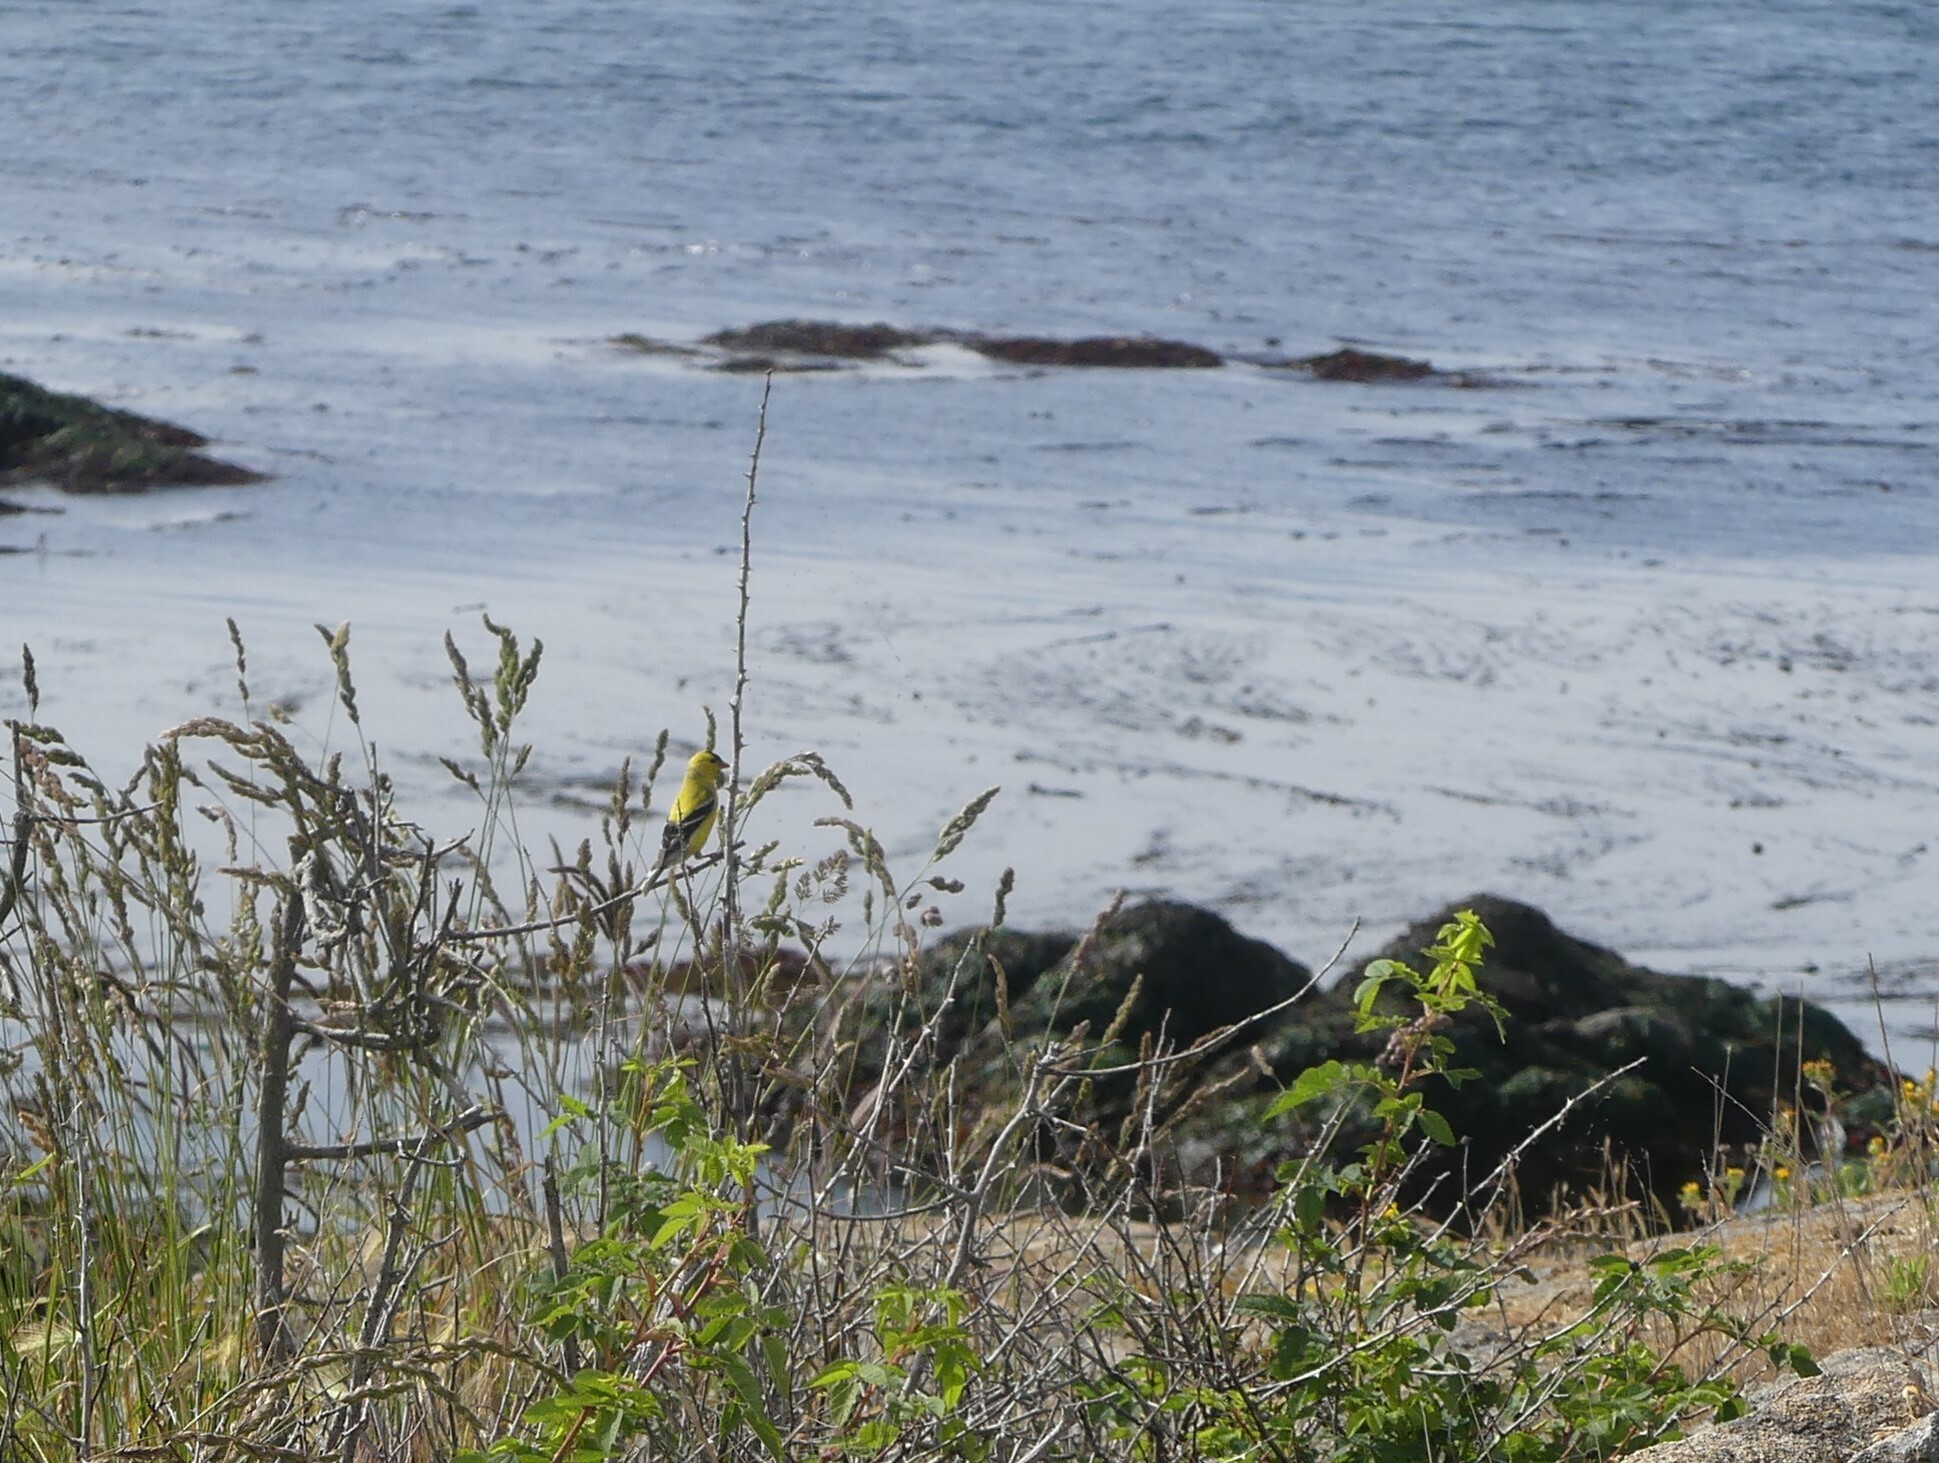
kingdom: Animalia
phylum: Chordata
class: Aves
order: Passeriformes
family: Fringillidae
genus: Spinus
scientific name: Spinus tristis
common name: American goldfinch
